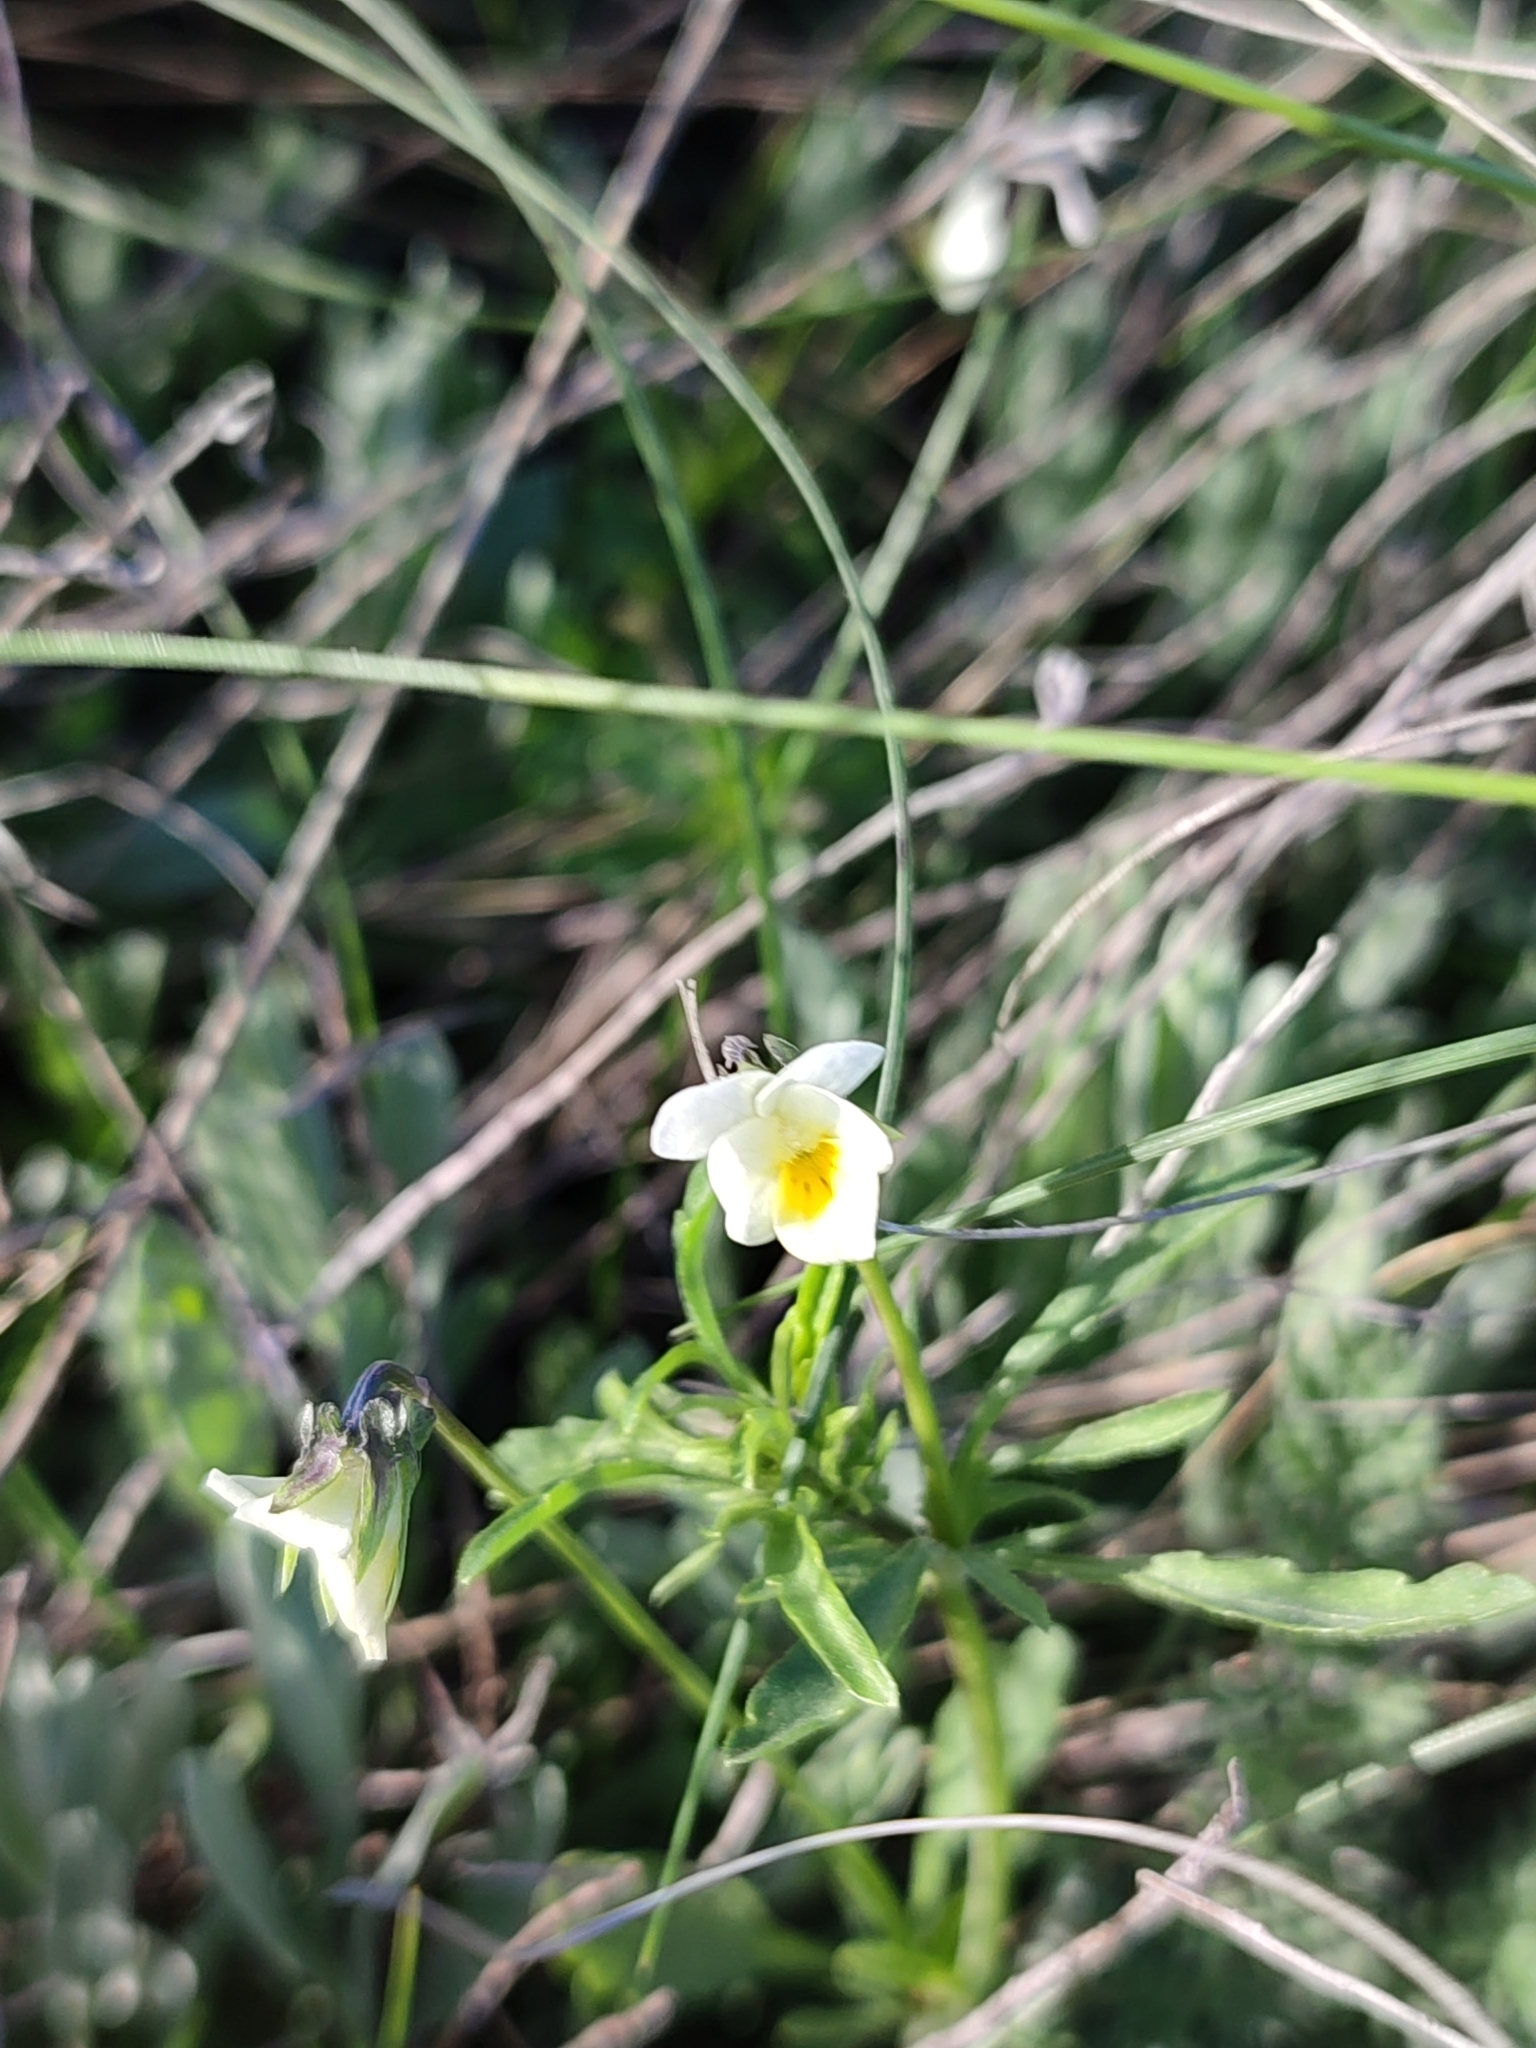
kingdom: Plantae
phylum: Tracheophyta
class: Magnoliopsida
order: Malpighiales
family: Violaceae
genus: Viola
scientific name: Viola arvensis
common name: Field pansy
